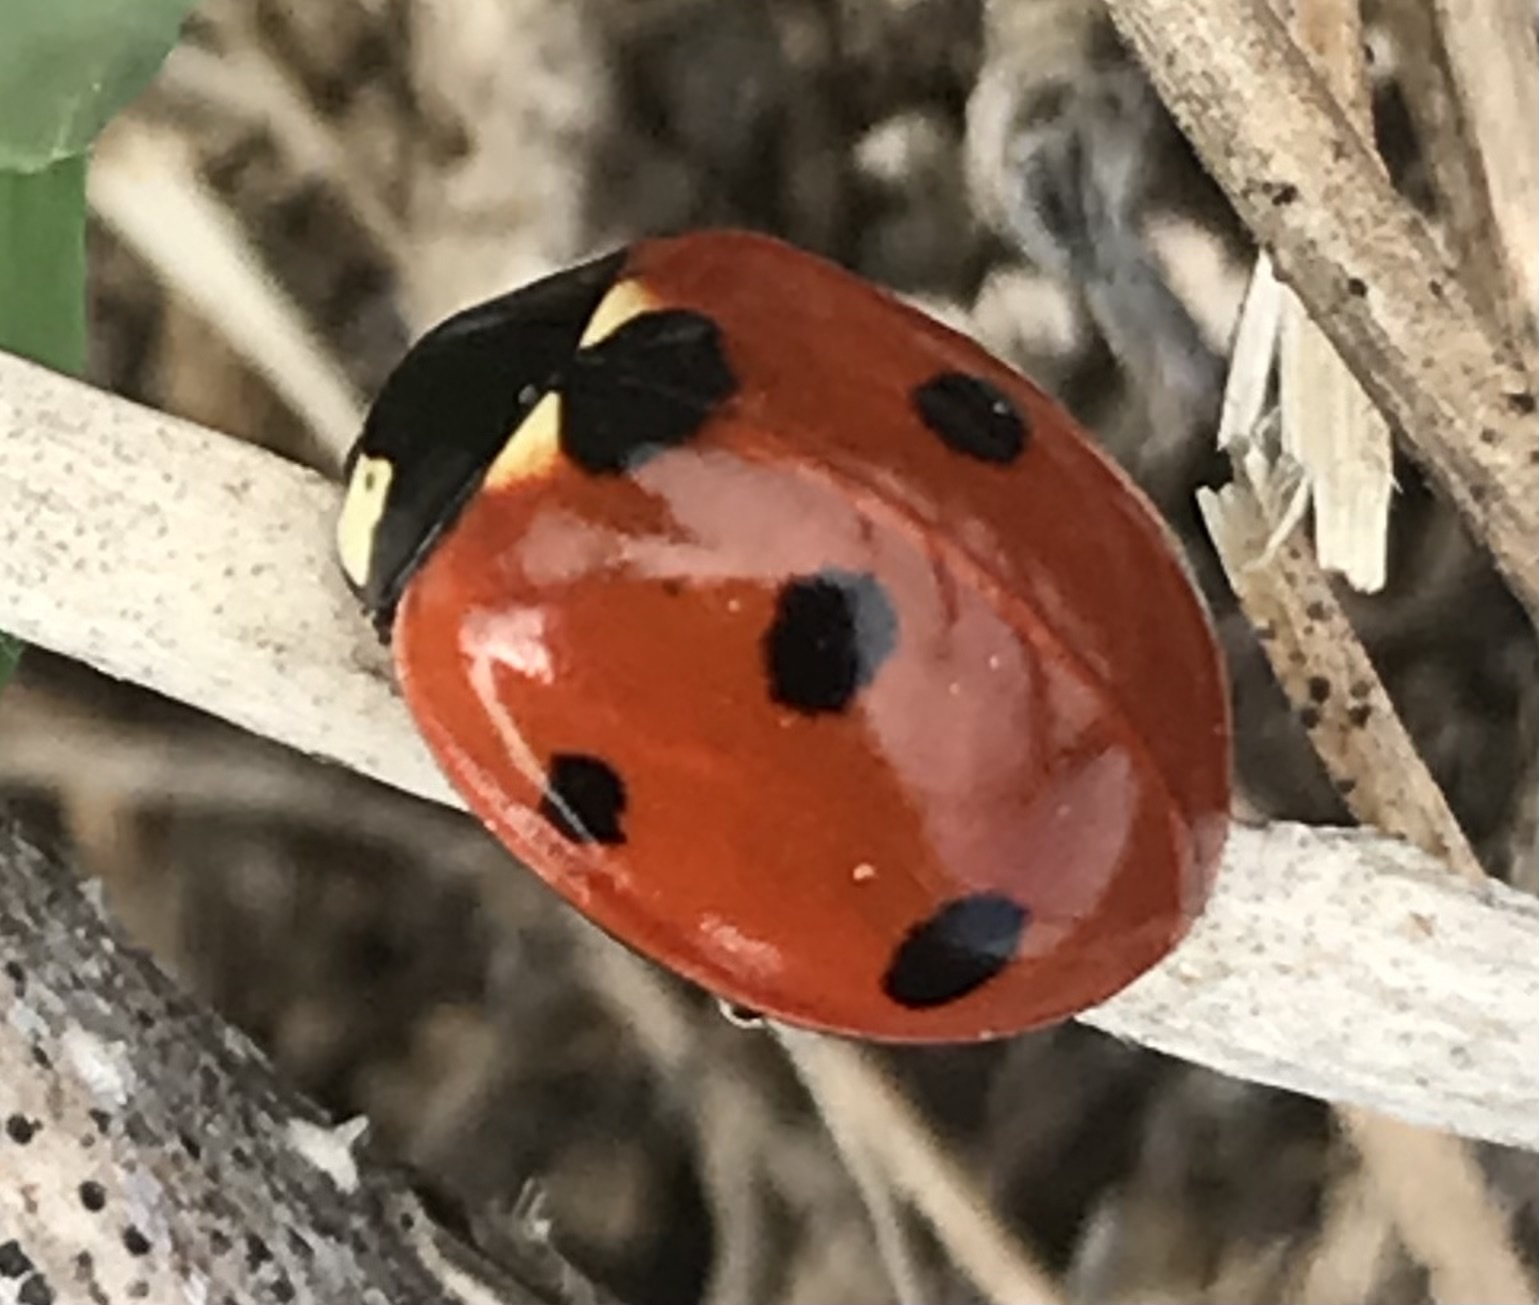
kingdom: Animalia
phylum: Arthropoda
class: Insecta
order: Coleoptera
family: Coccinellidae
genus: Coccinella
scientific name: Coccinella septempunctata
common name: Sevenspotted lady beetle
